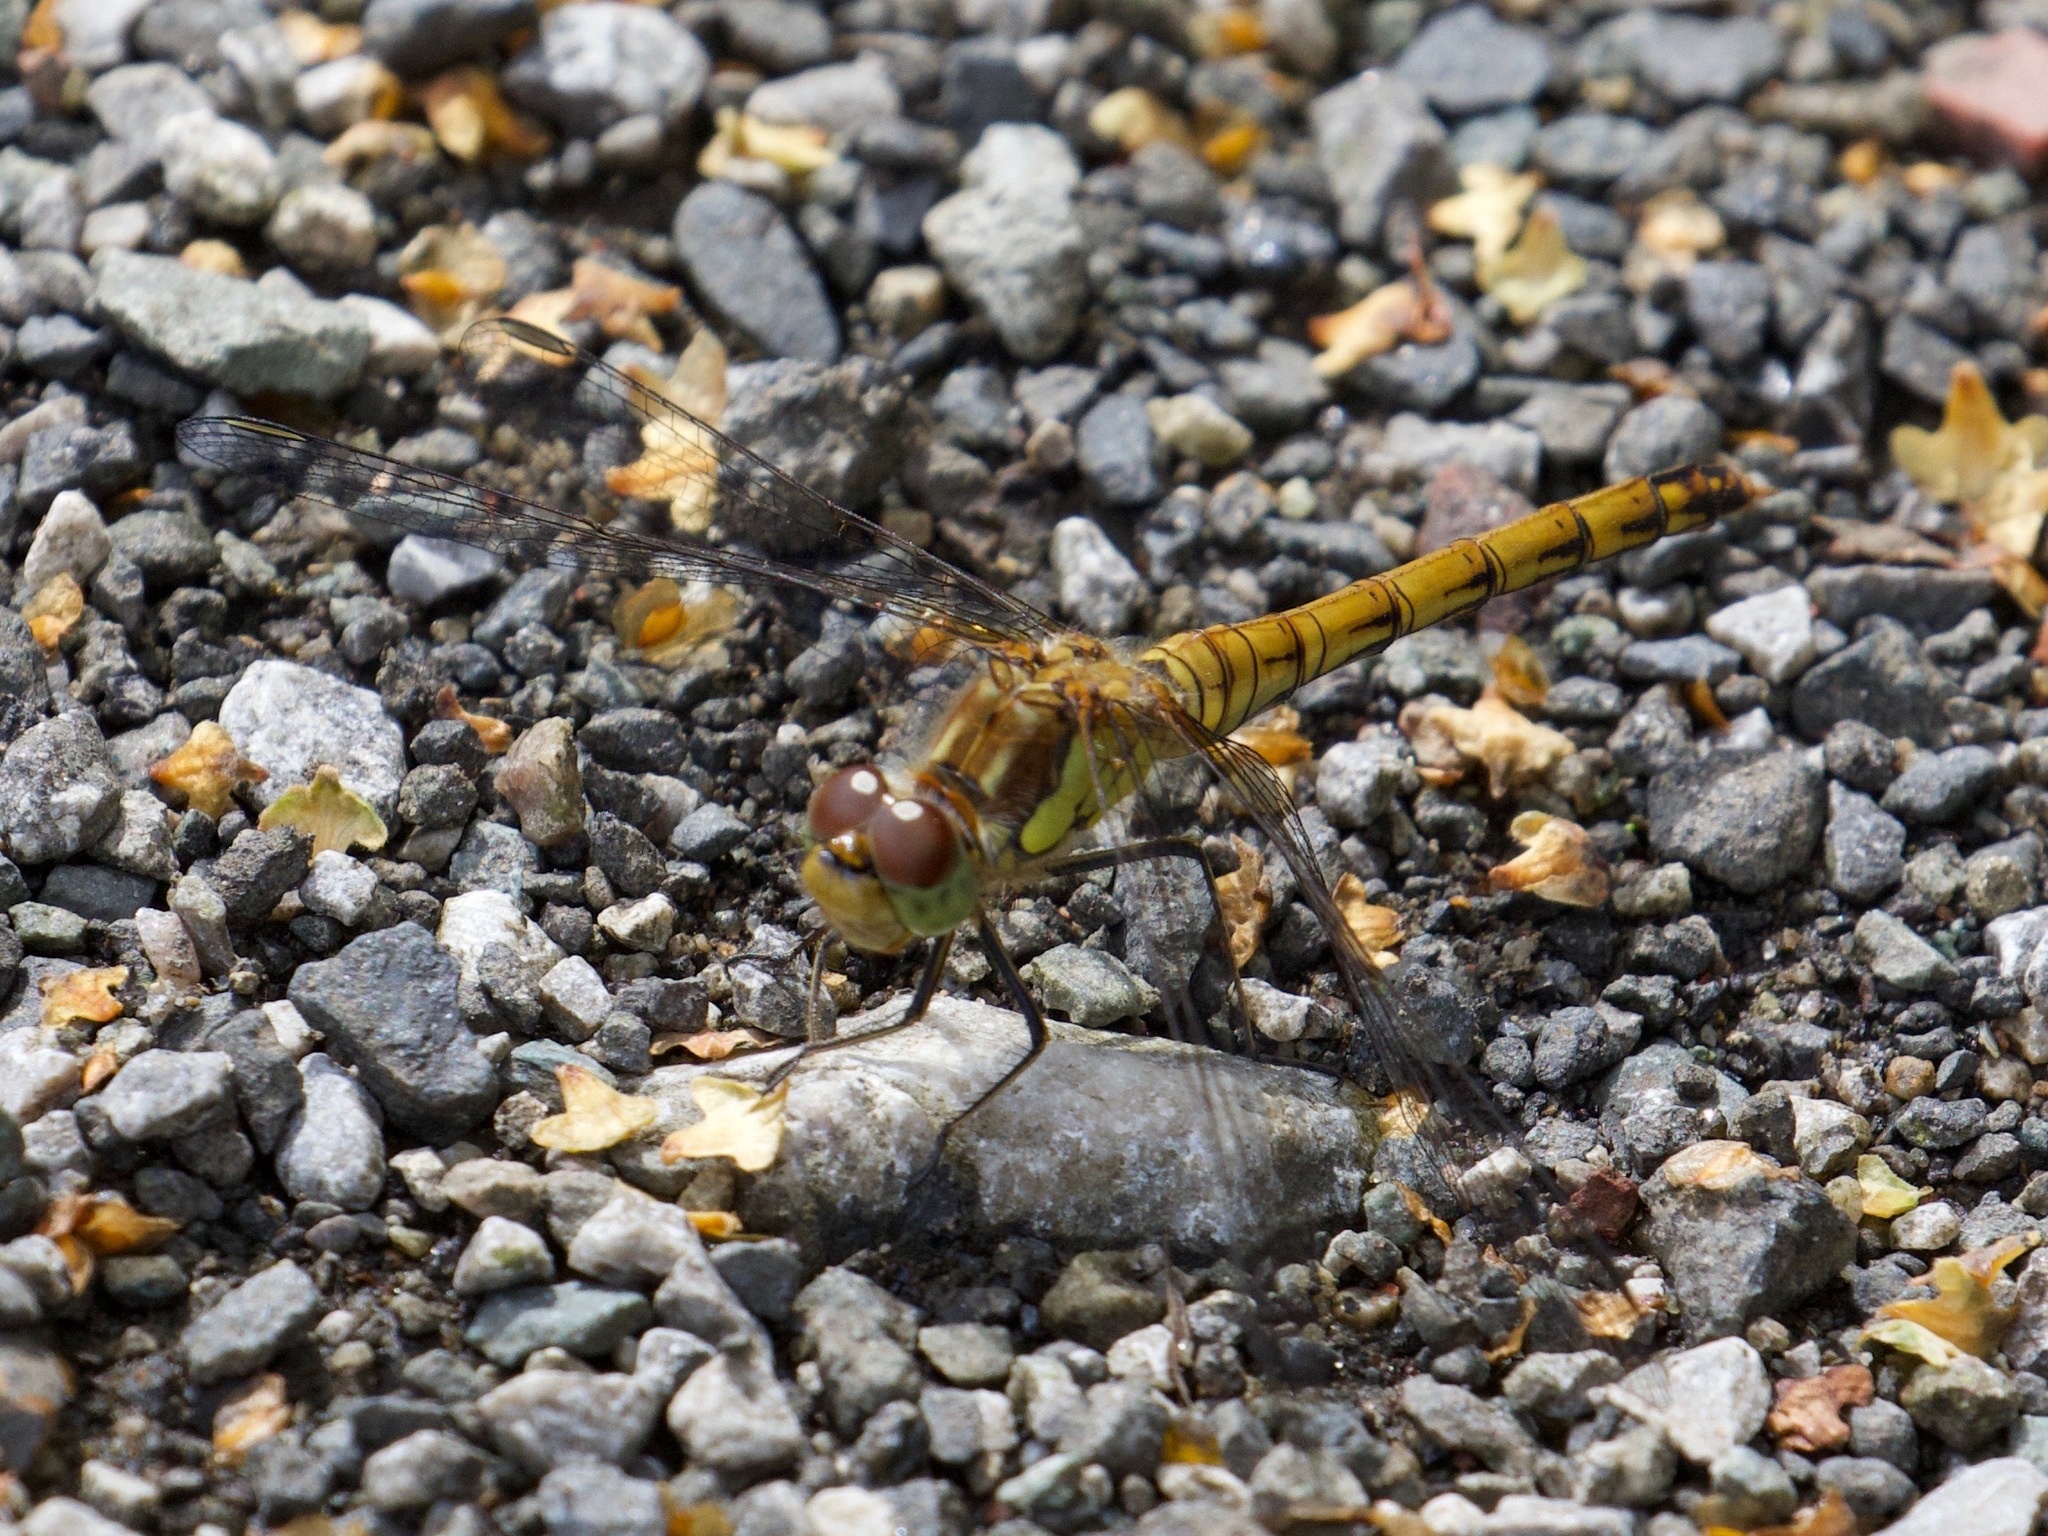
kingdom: Animalia
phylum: Arthropoda
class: Insecta
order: Odonata
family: Libellulidae
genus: Sympetrum
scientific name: Sympetrum striolatum
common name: Common darter
